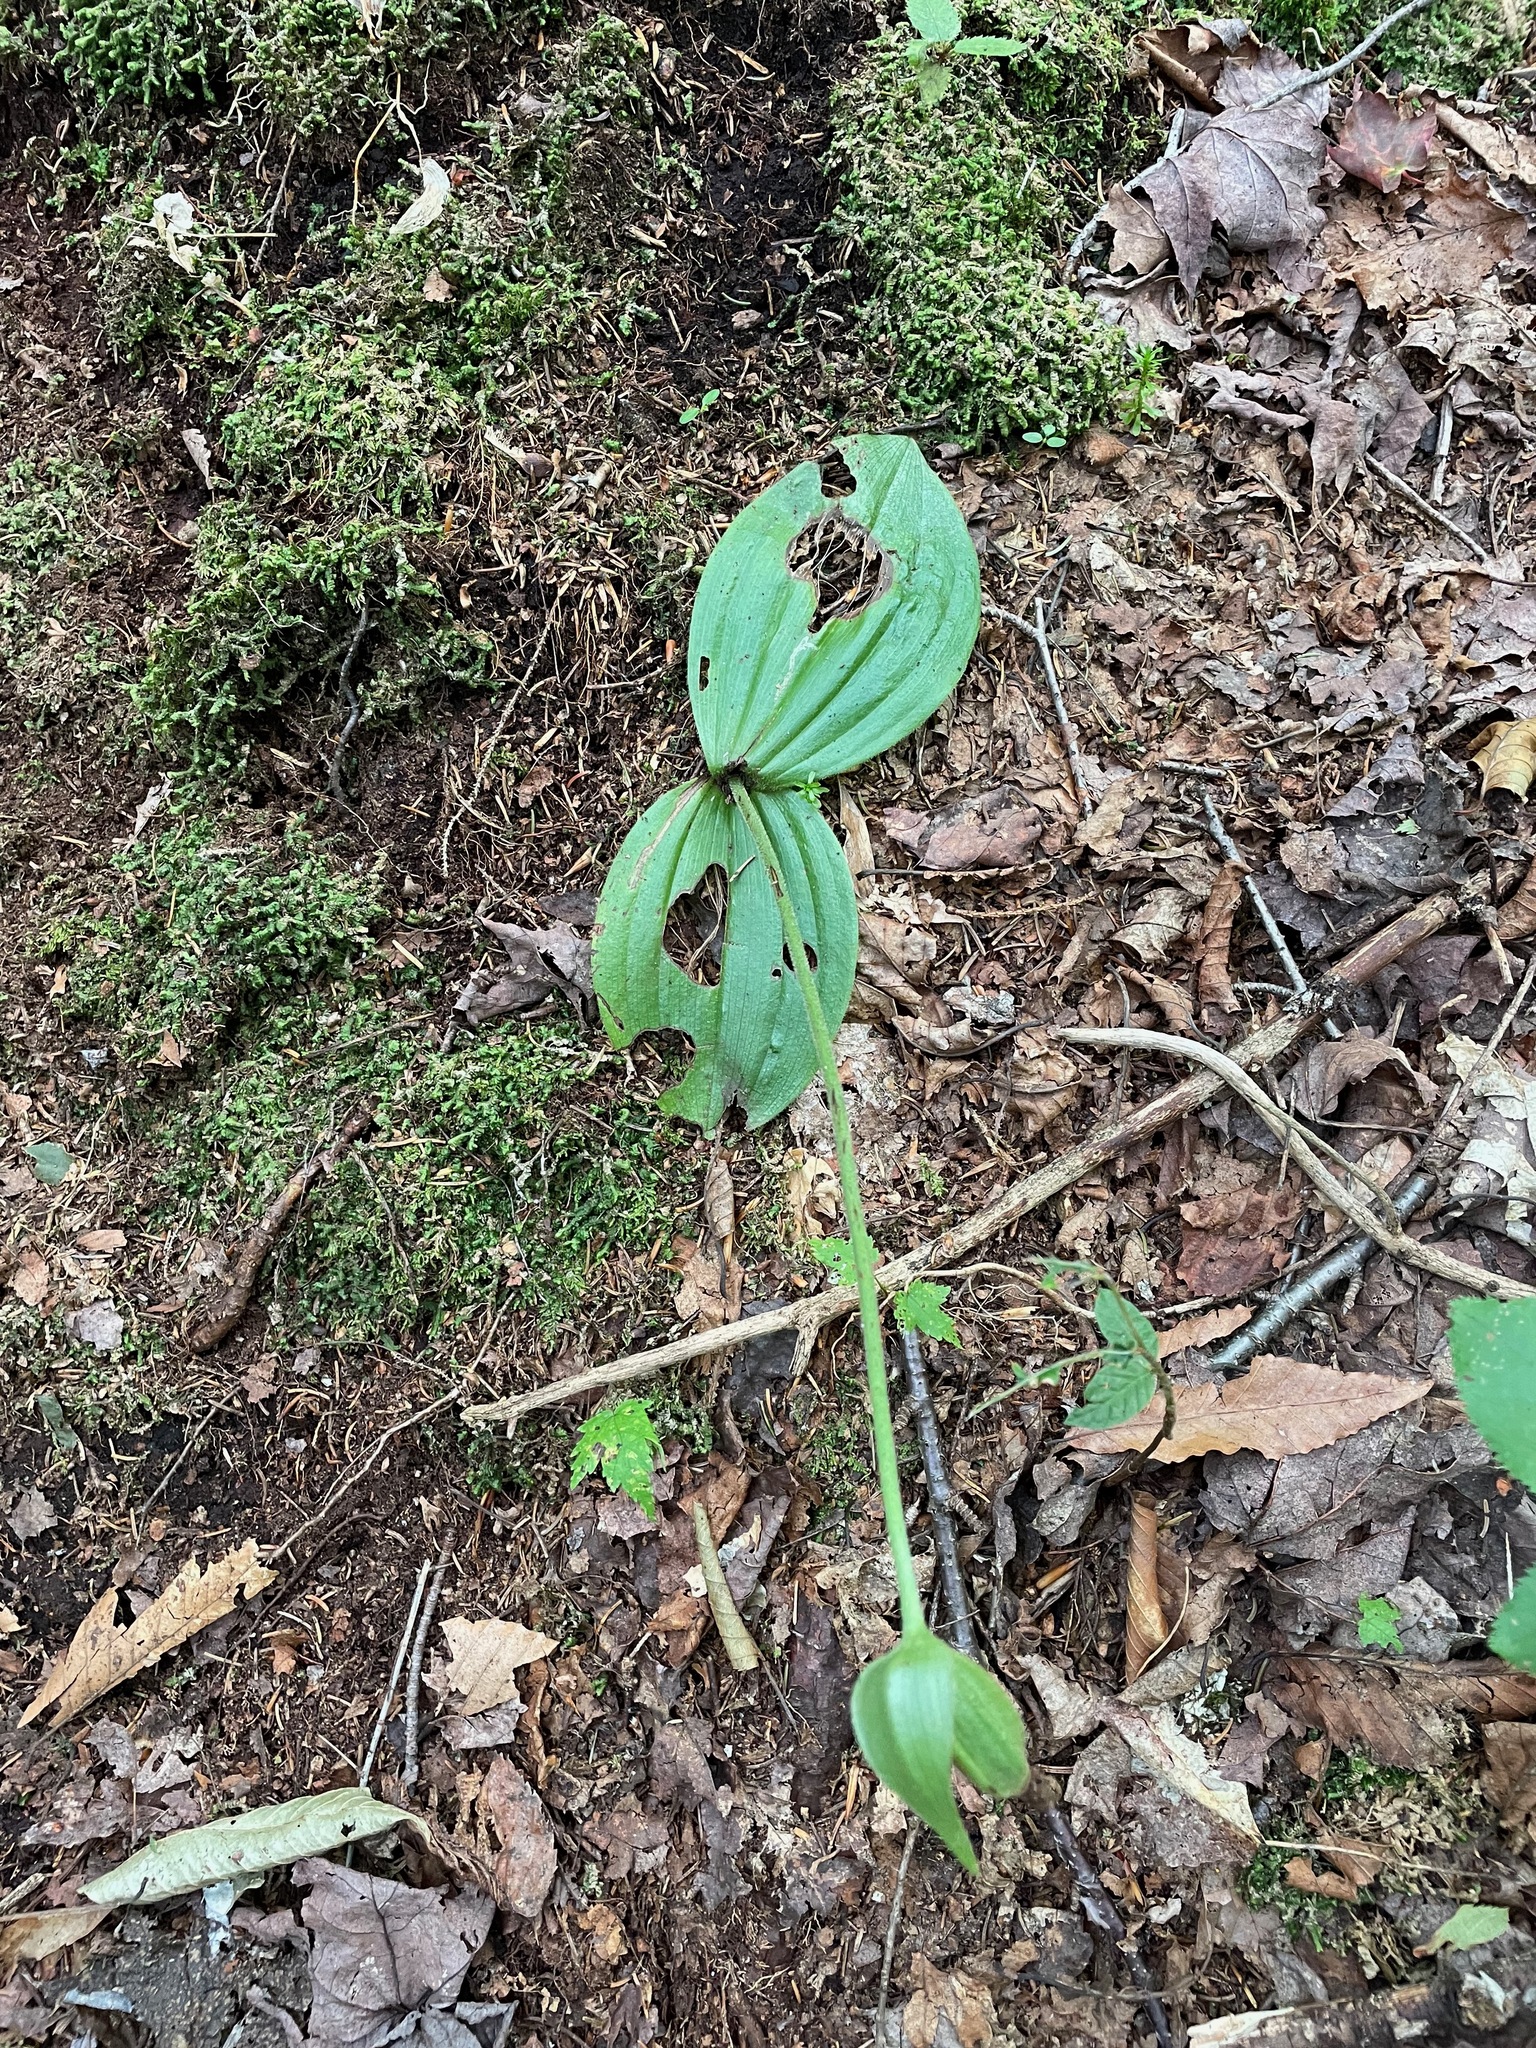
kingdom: Plantae
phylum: Tracheophyta
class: Liliopsida
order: Asparagales
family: Orchidaceae
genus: Cypripedium
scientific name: Cypripedium acaule
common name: Pink lady's-slipper
